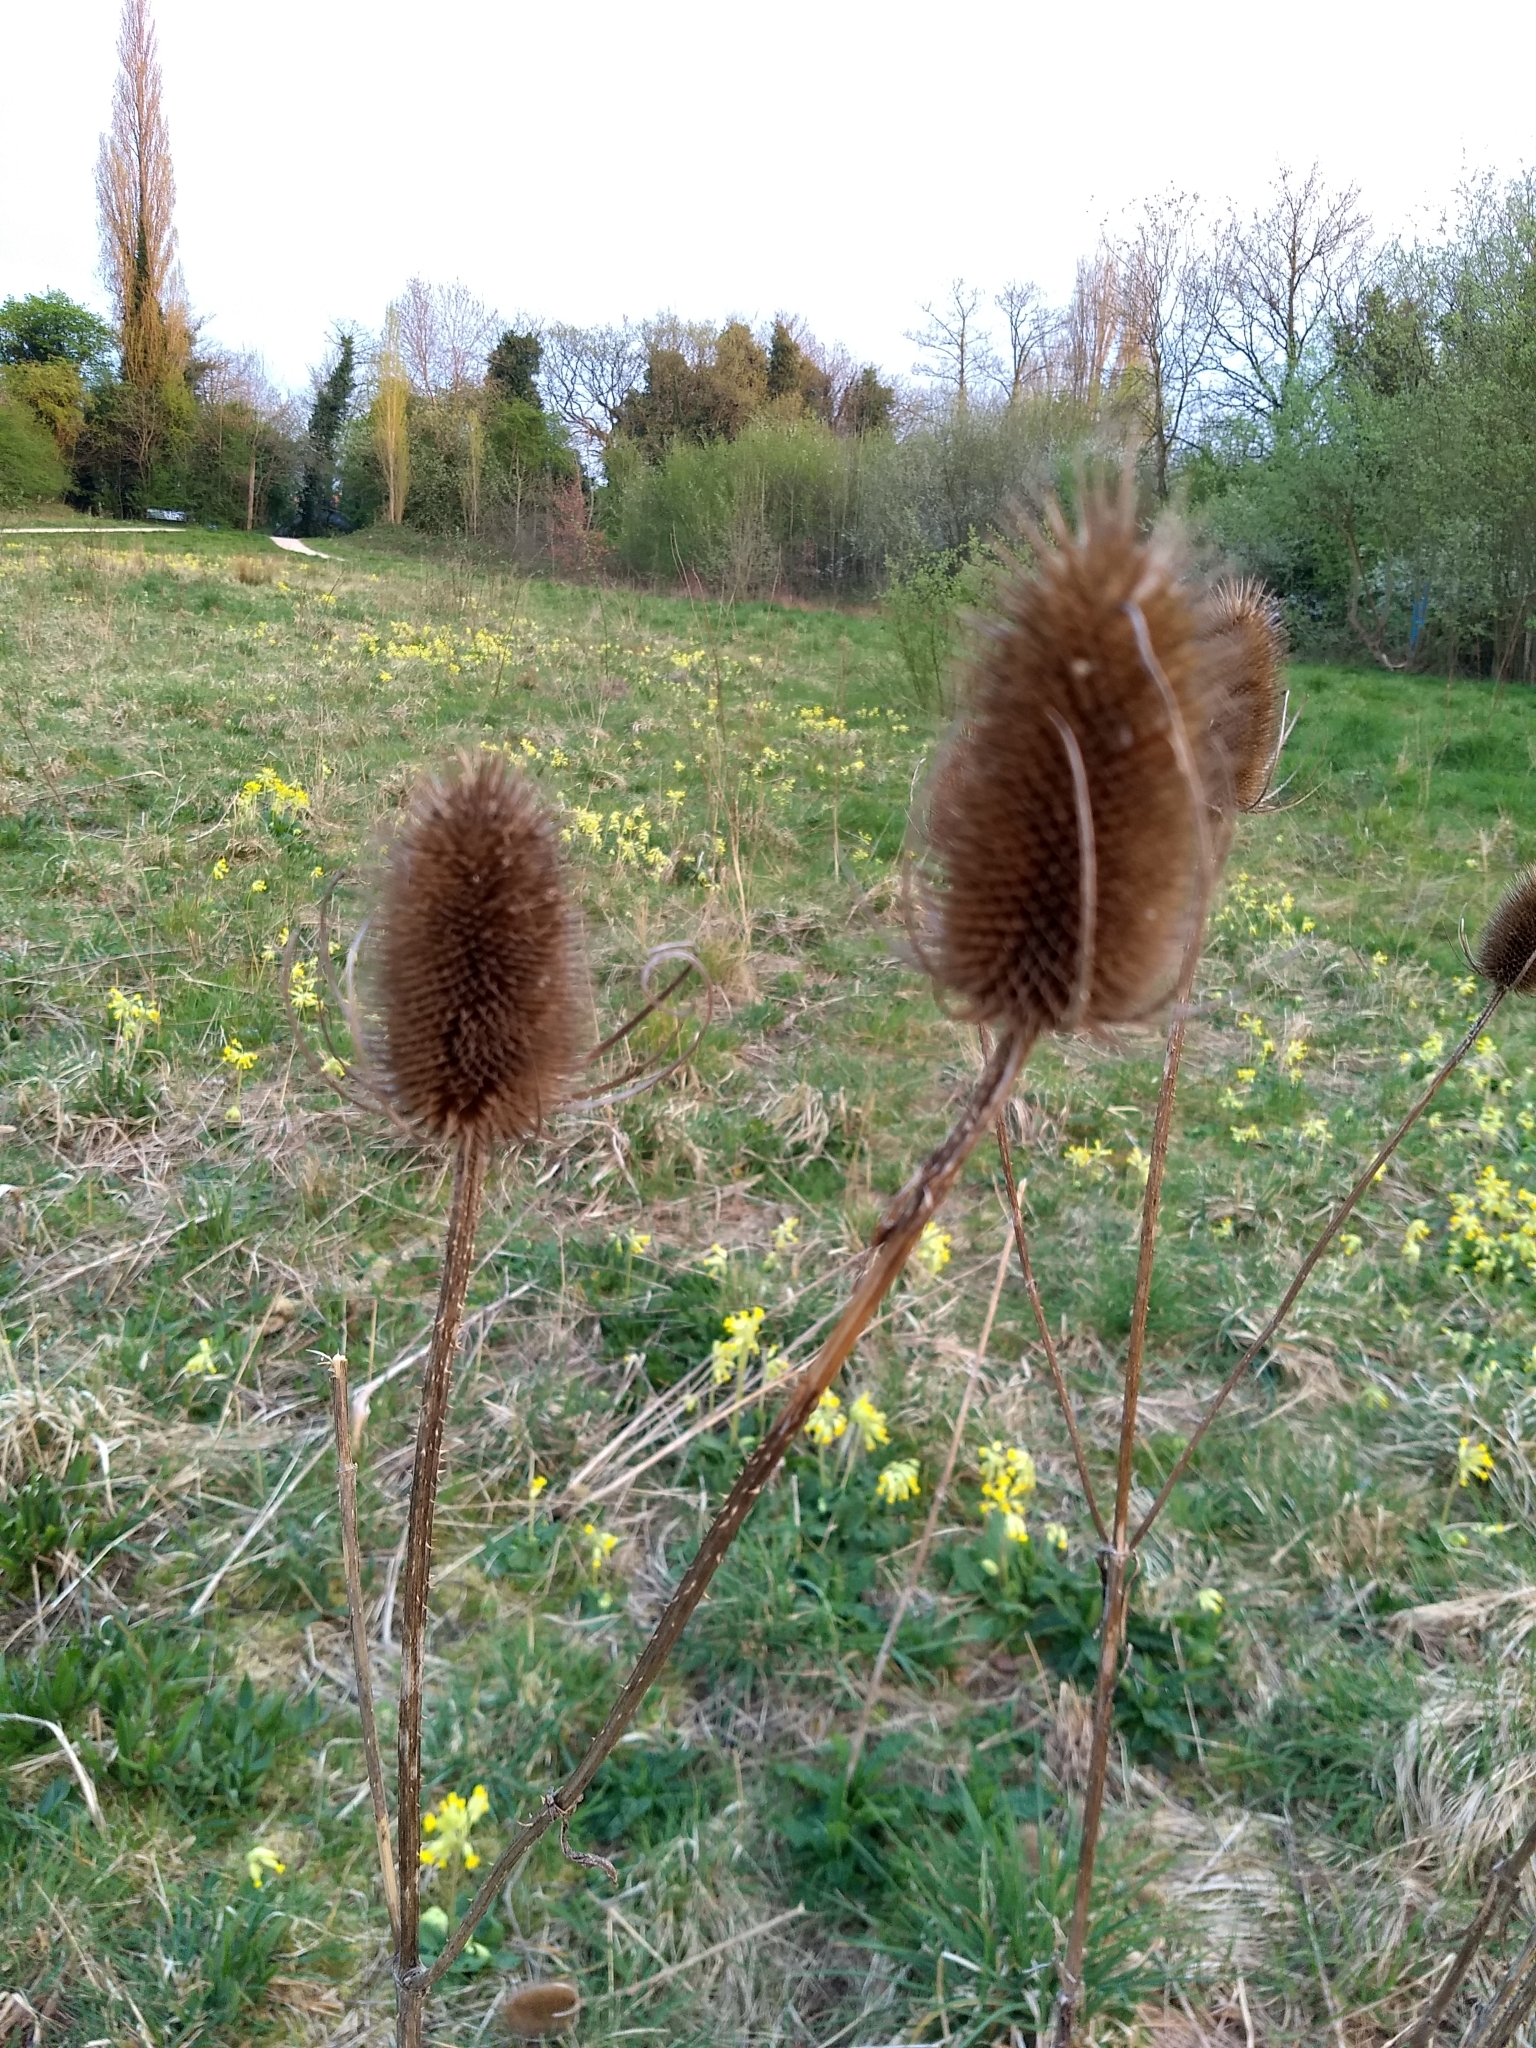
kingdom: Plantae
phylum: Tracheophyta
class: Magnoliopsida
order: Dipsacales
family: Caprifoliaceae
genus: Dipsacus
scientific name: Dipsacus fullonum
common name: Teasel
